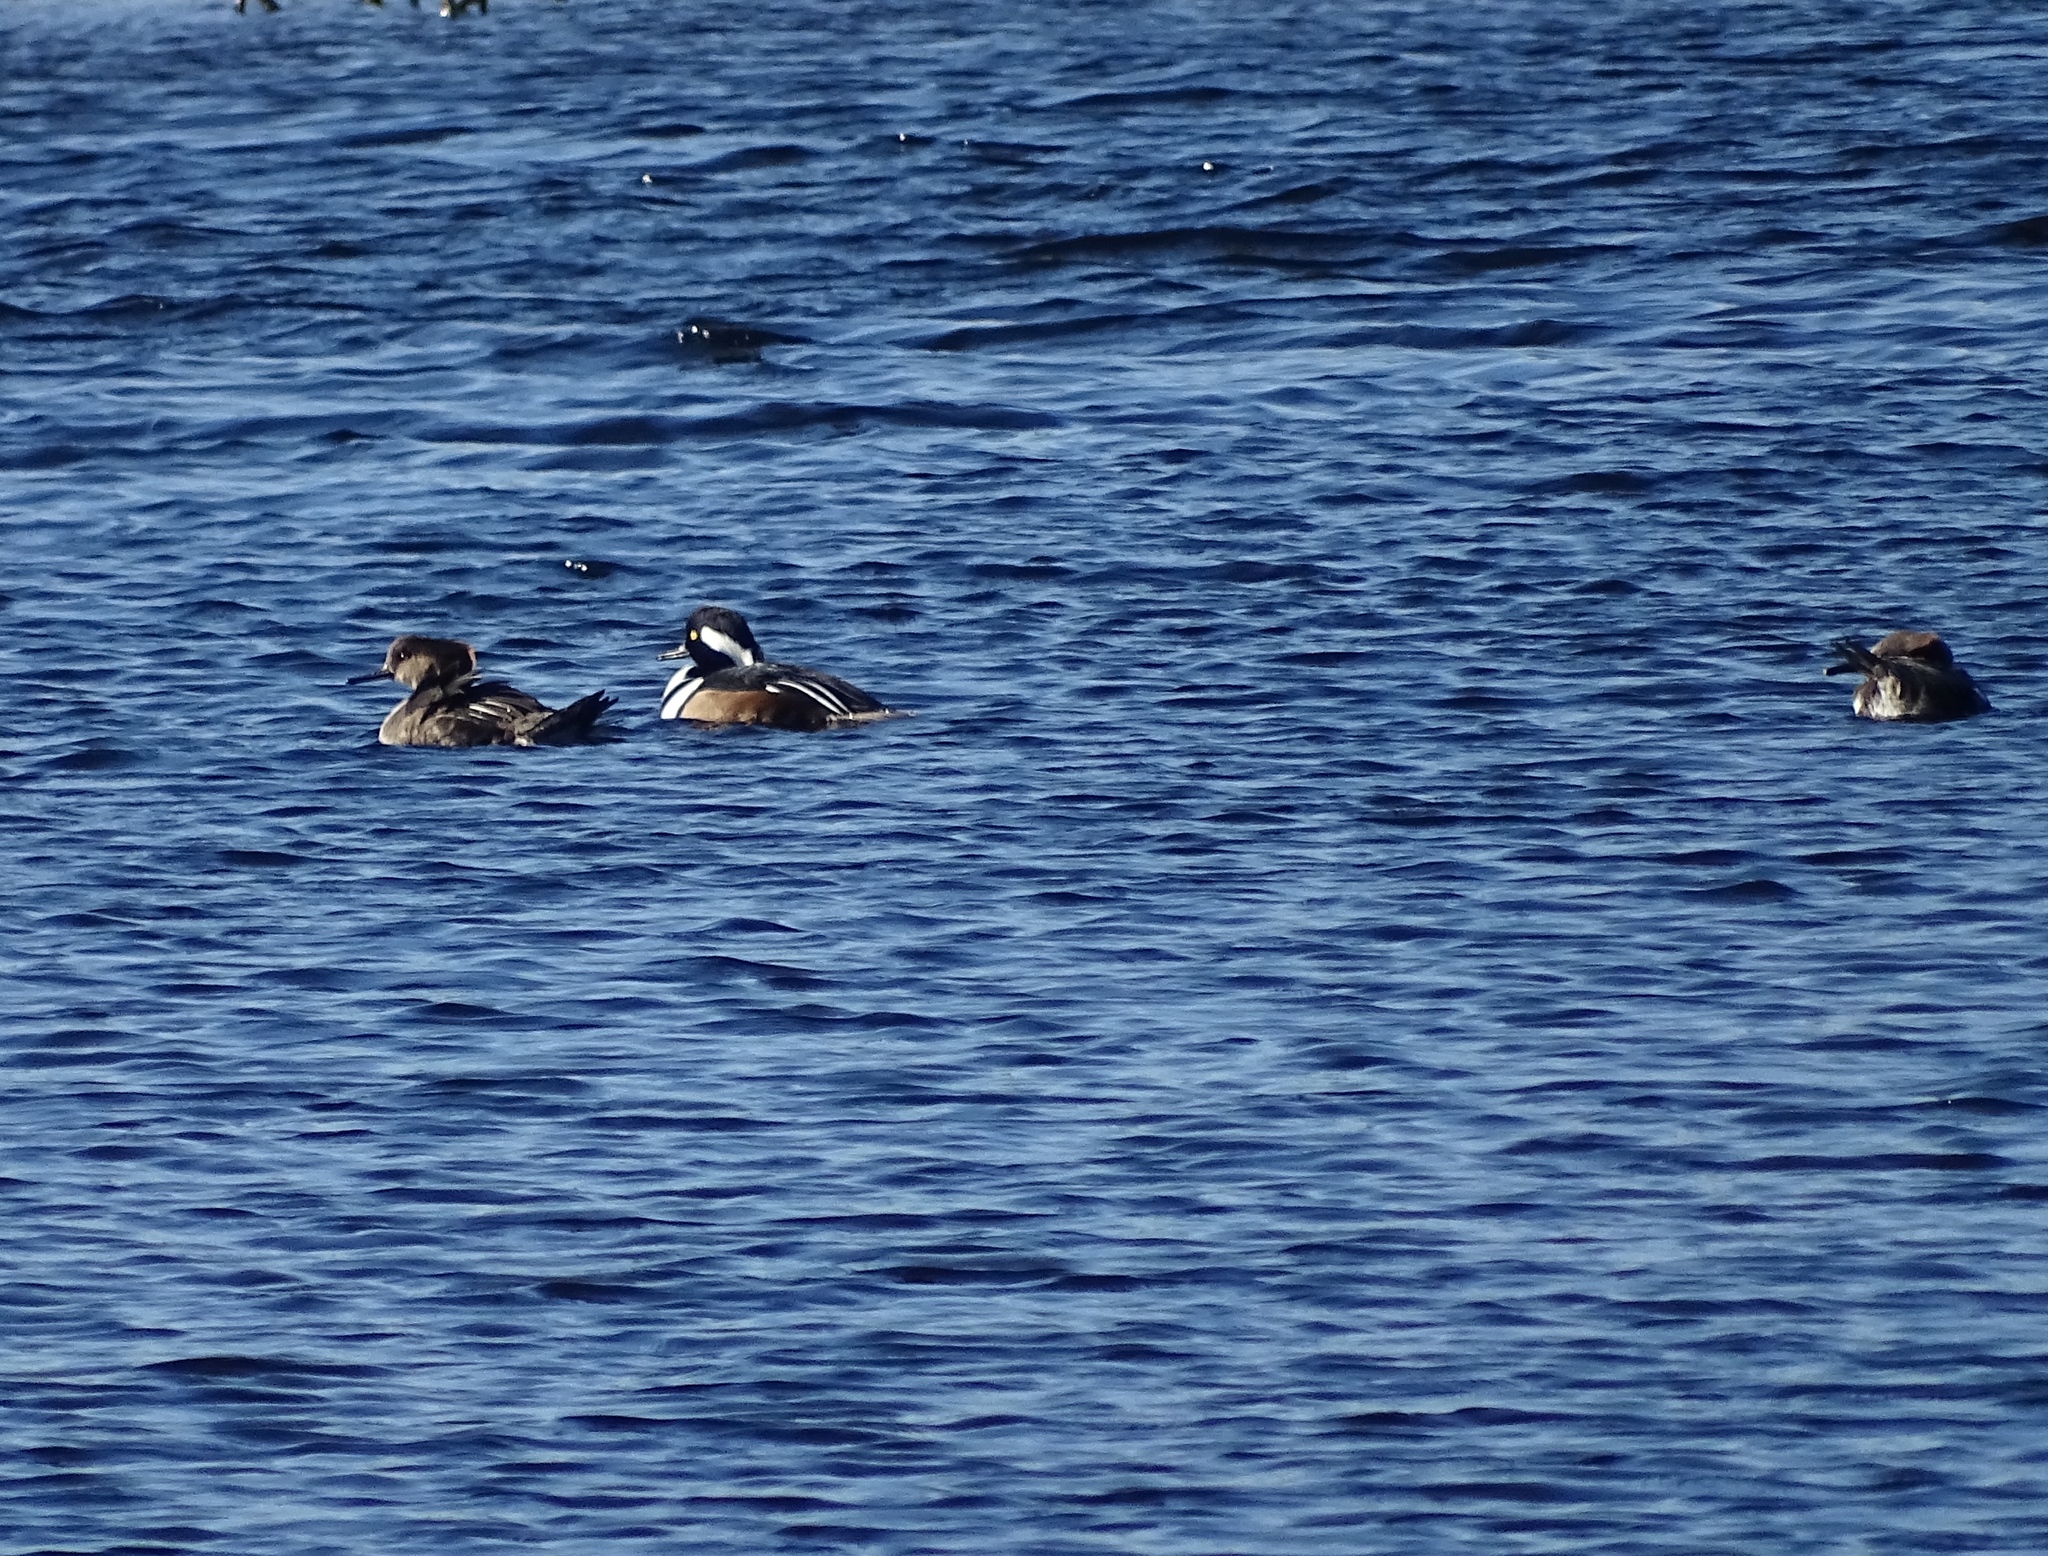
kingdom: Animalia
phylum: Chordata
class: Aves
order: Anseriformes
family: Anatidae
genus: Lophodytes
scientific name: Lophodytes cucullatus
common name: Hooded merganser
